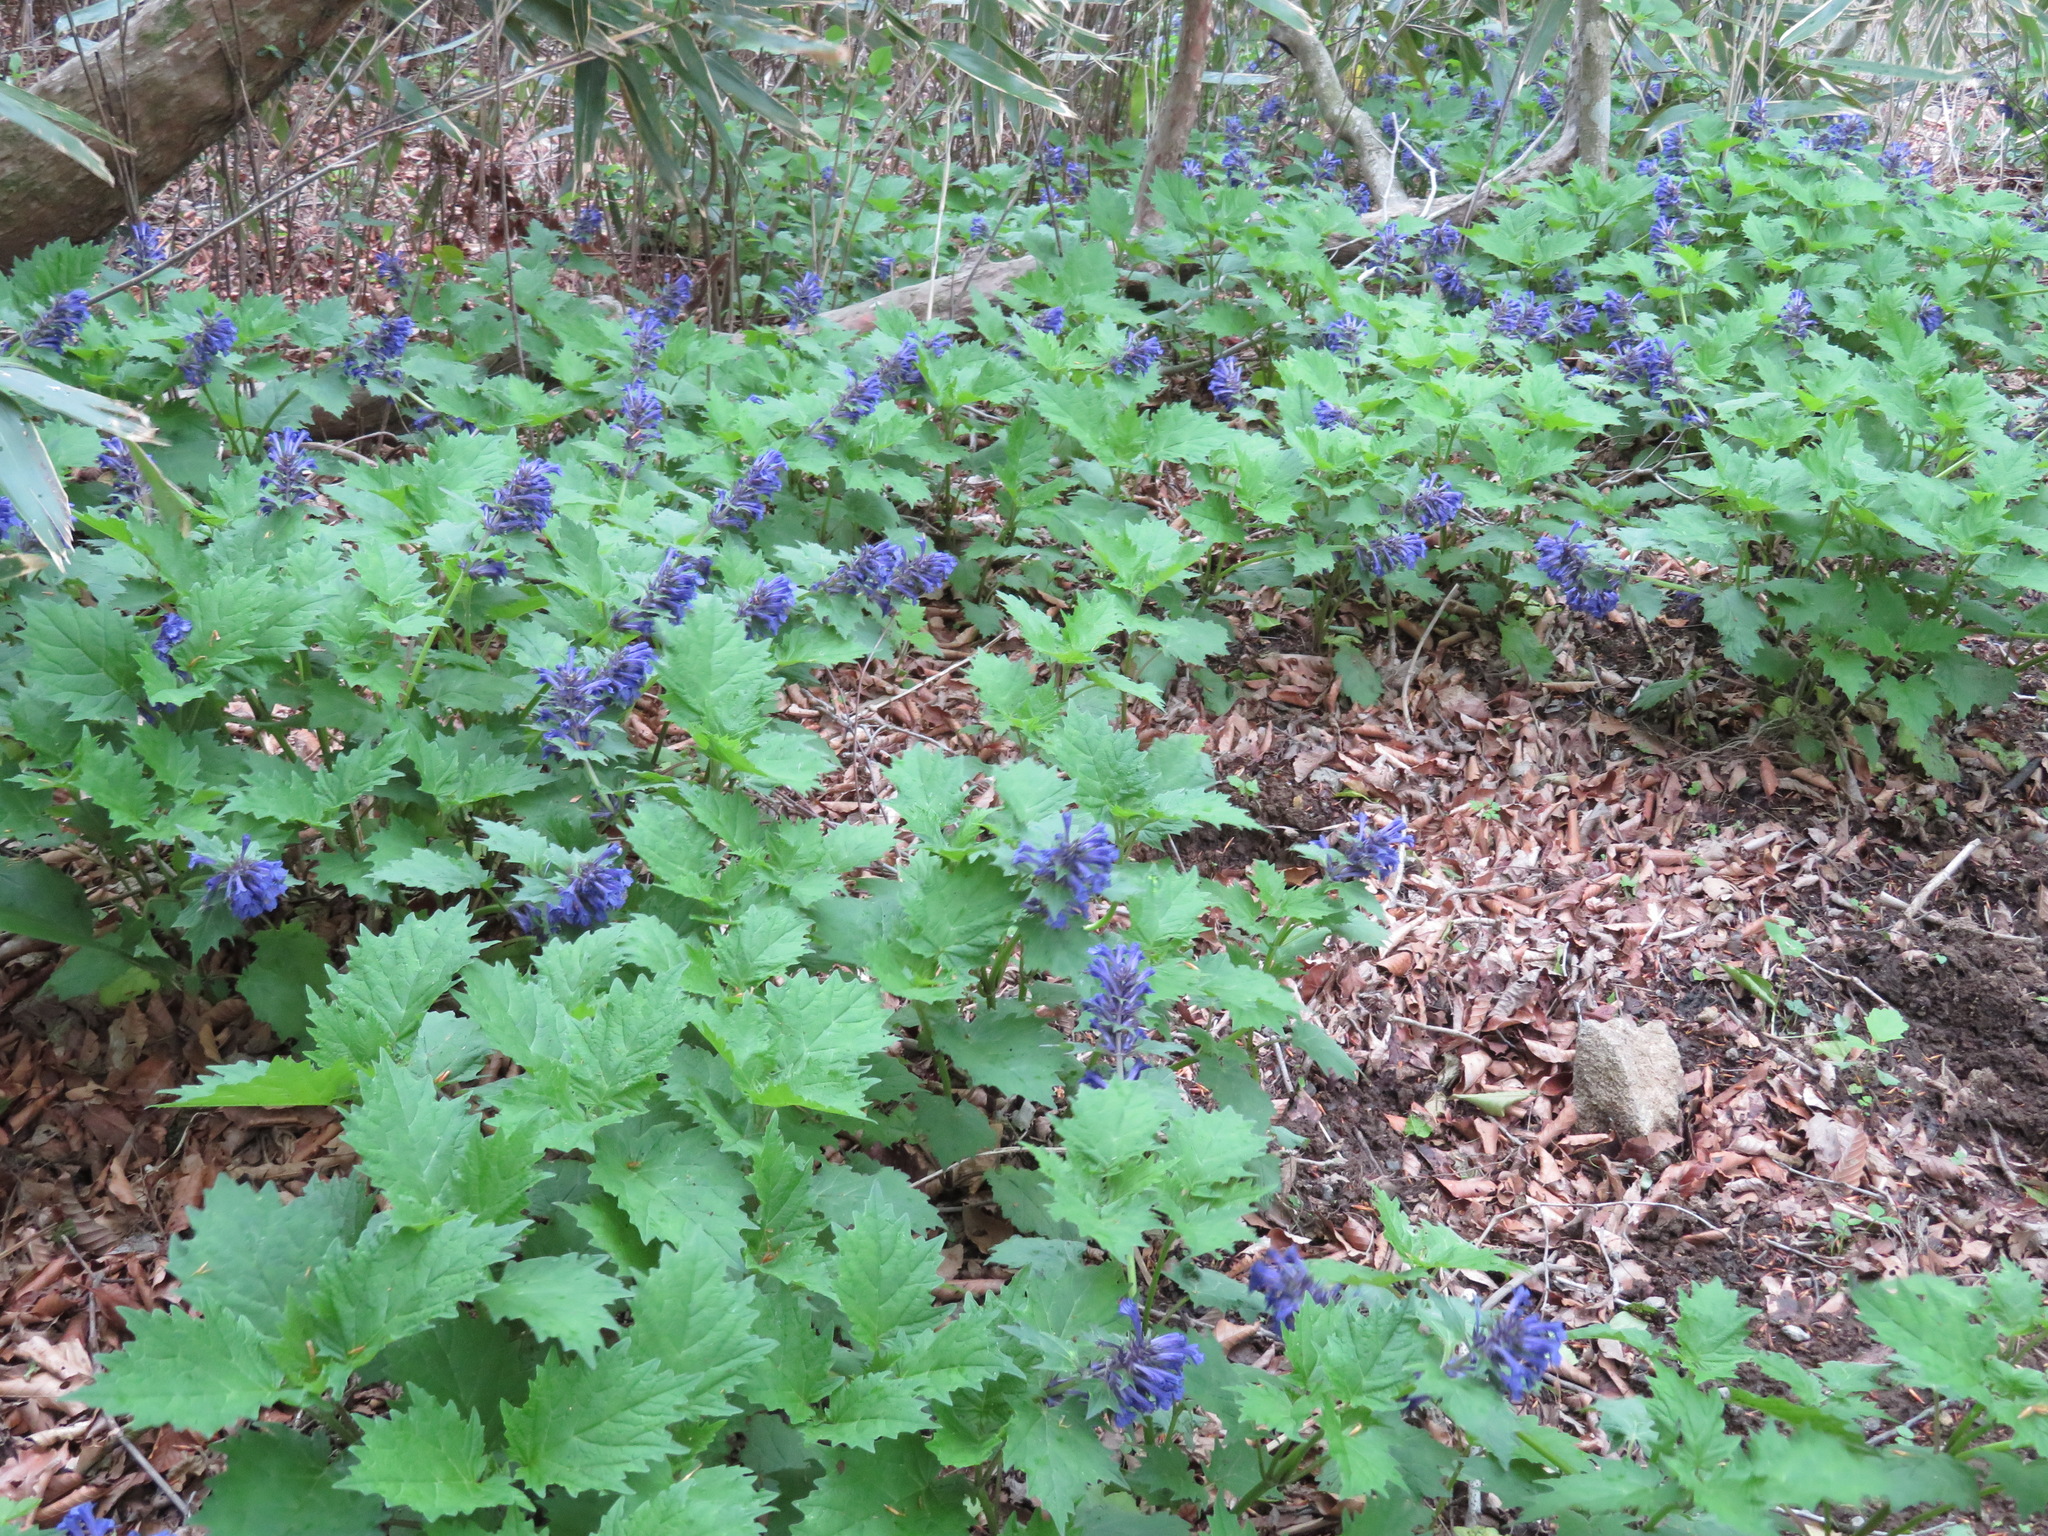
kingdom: Plantae
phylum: Tracheophyta
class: Magnoliopsida
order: Lamiales
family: Lamiaceae
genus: Ajuga
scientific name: Ajuga incisa
